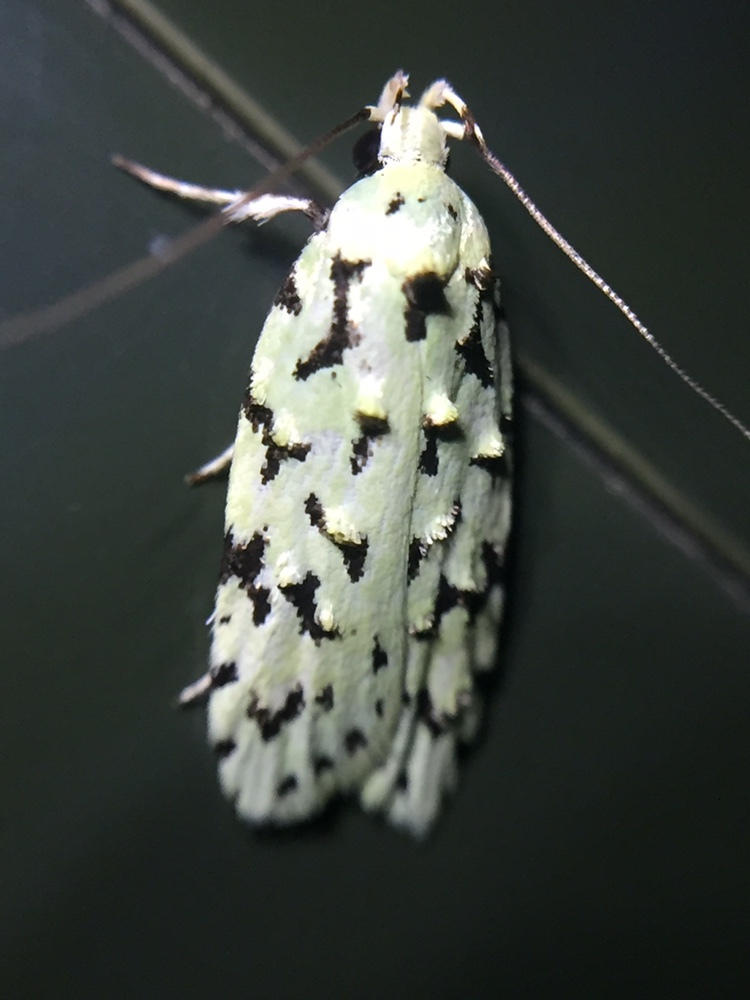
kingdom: Animalia
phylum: Arthropoda
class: Insecta
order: Lepidoptera
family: Oecophoridae
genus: Izatha
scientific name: Izatha peroneanella
